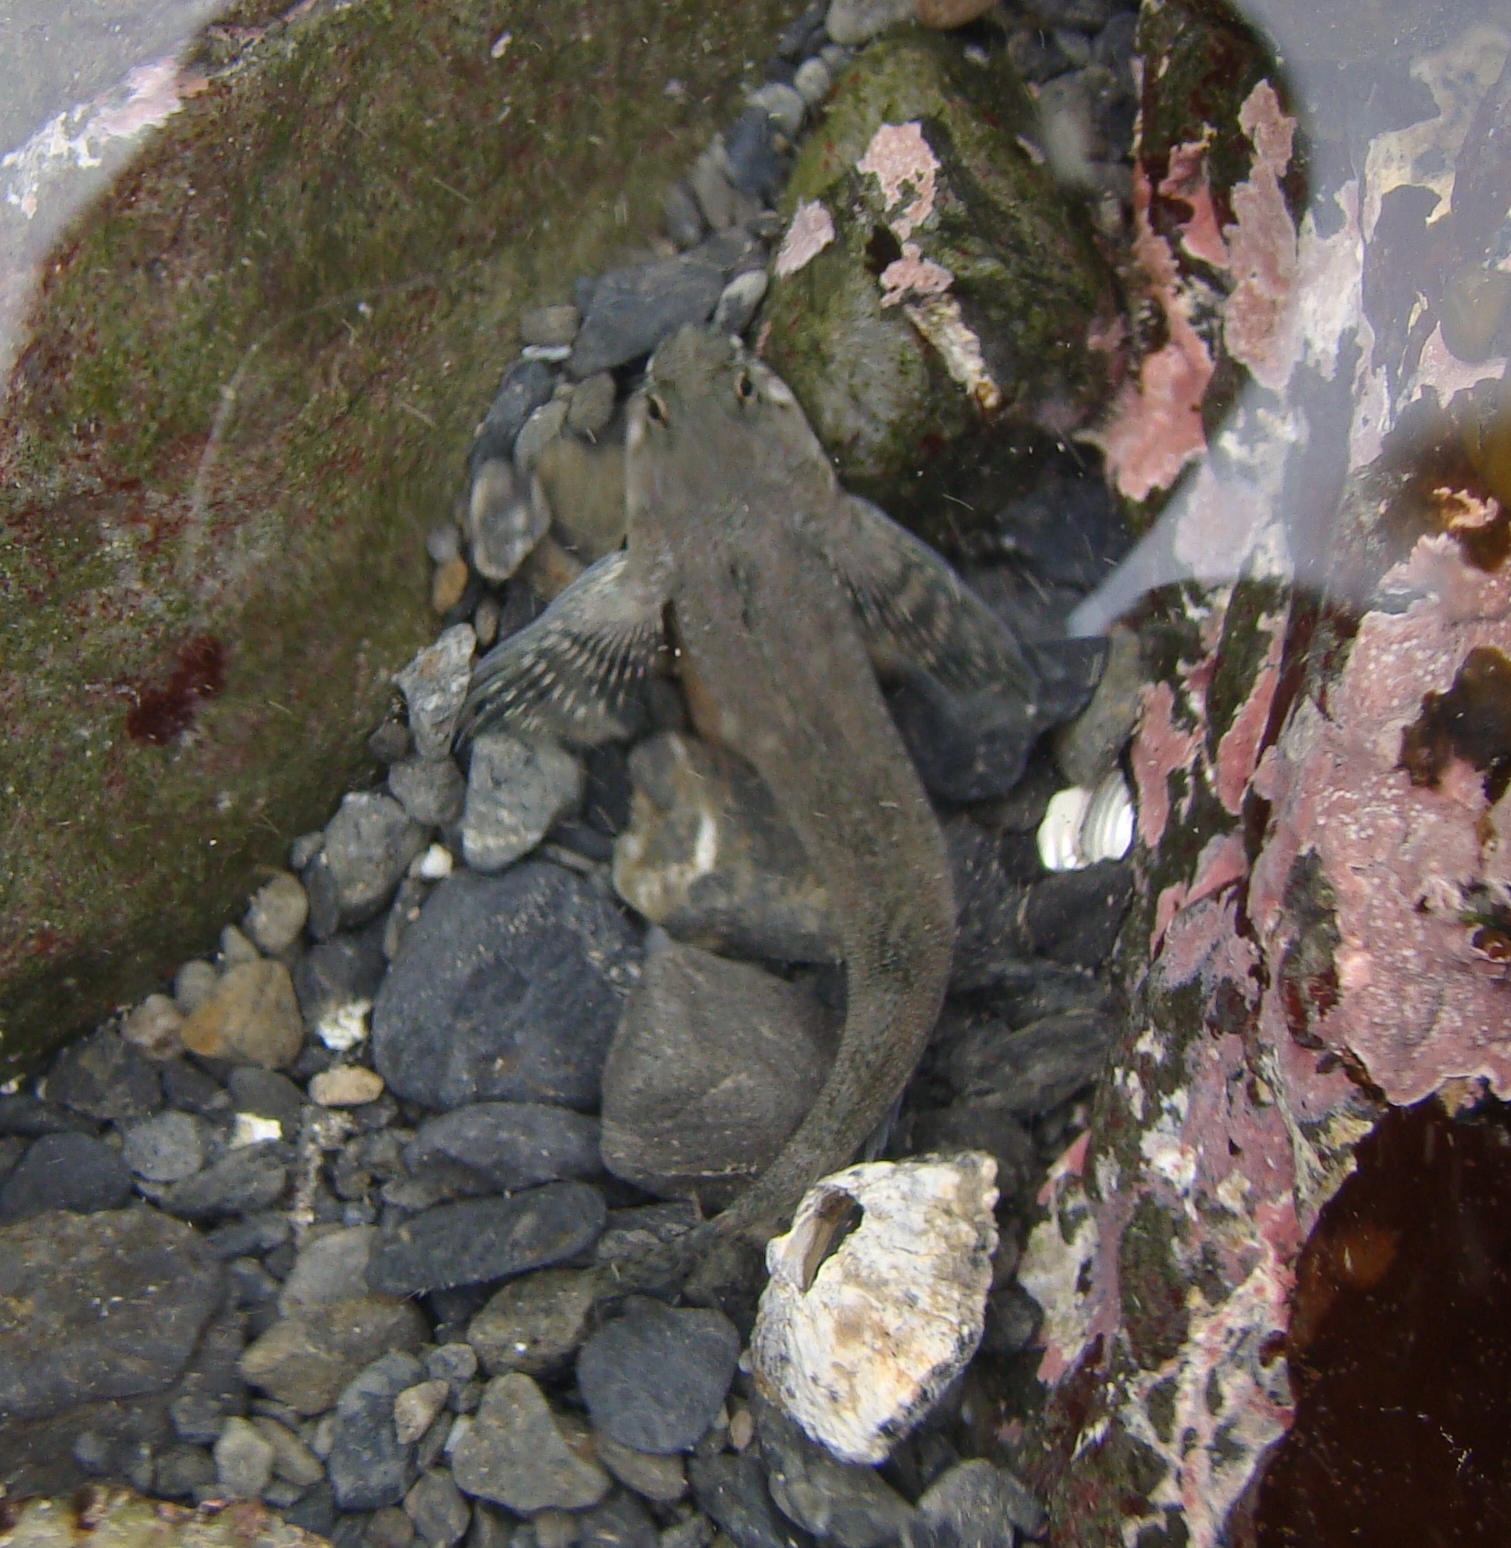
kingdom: Animalia
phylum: Chordata
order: Perciformes
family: Tripterygiidae
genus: Bellapiscis
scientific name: Bellapiscis medius
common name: Twister
